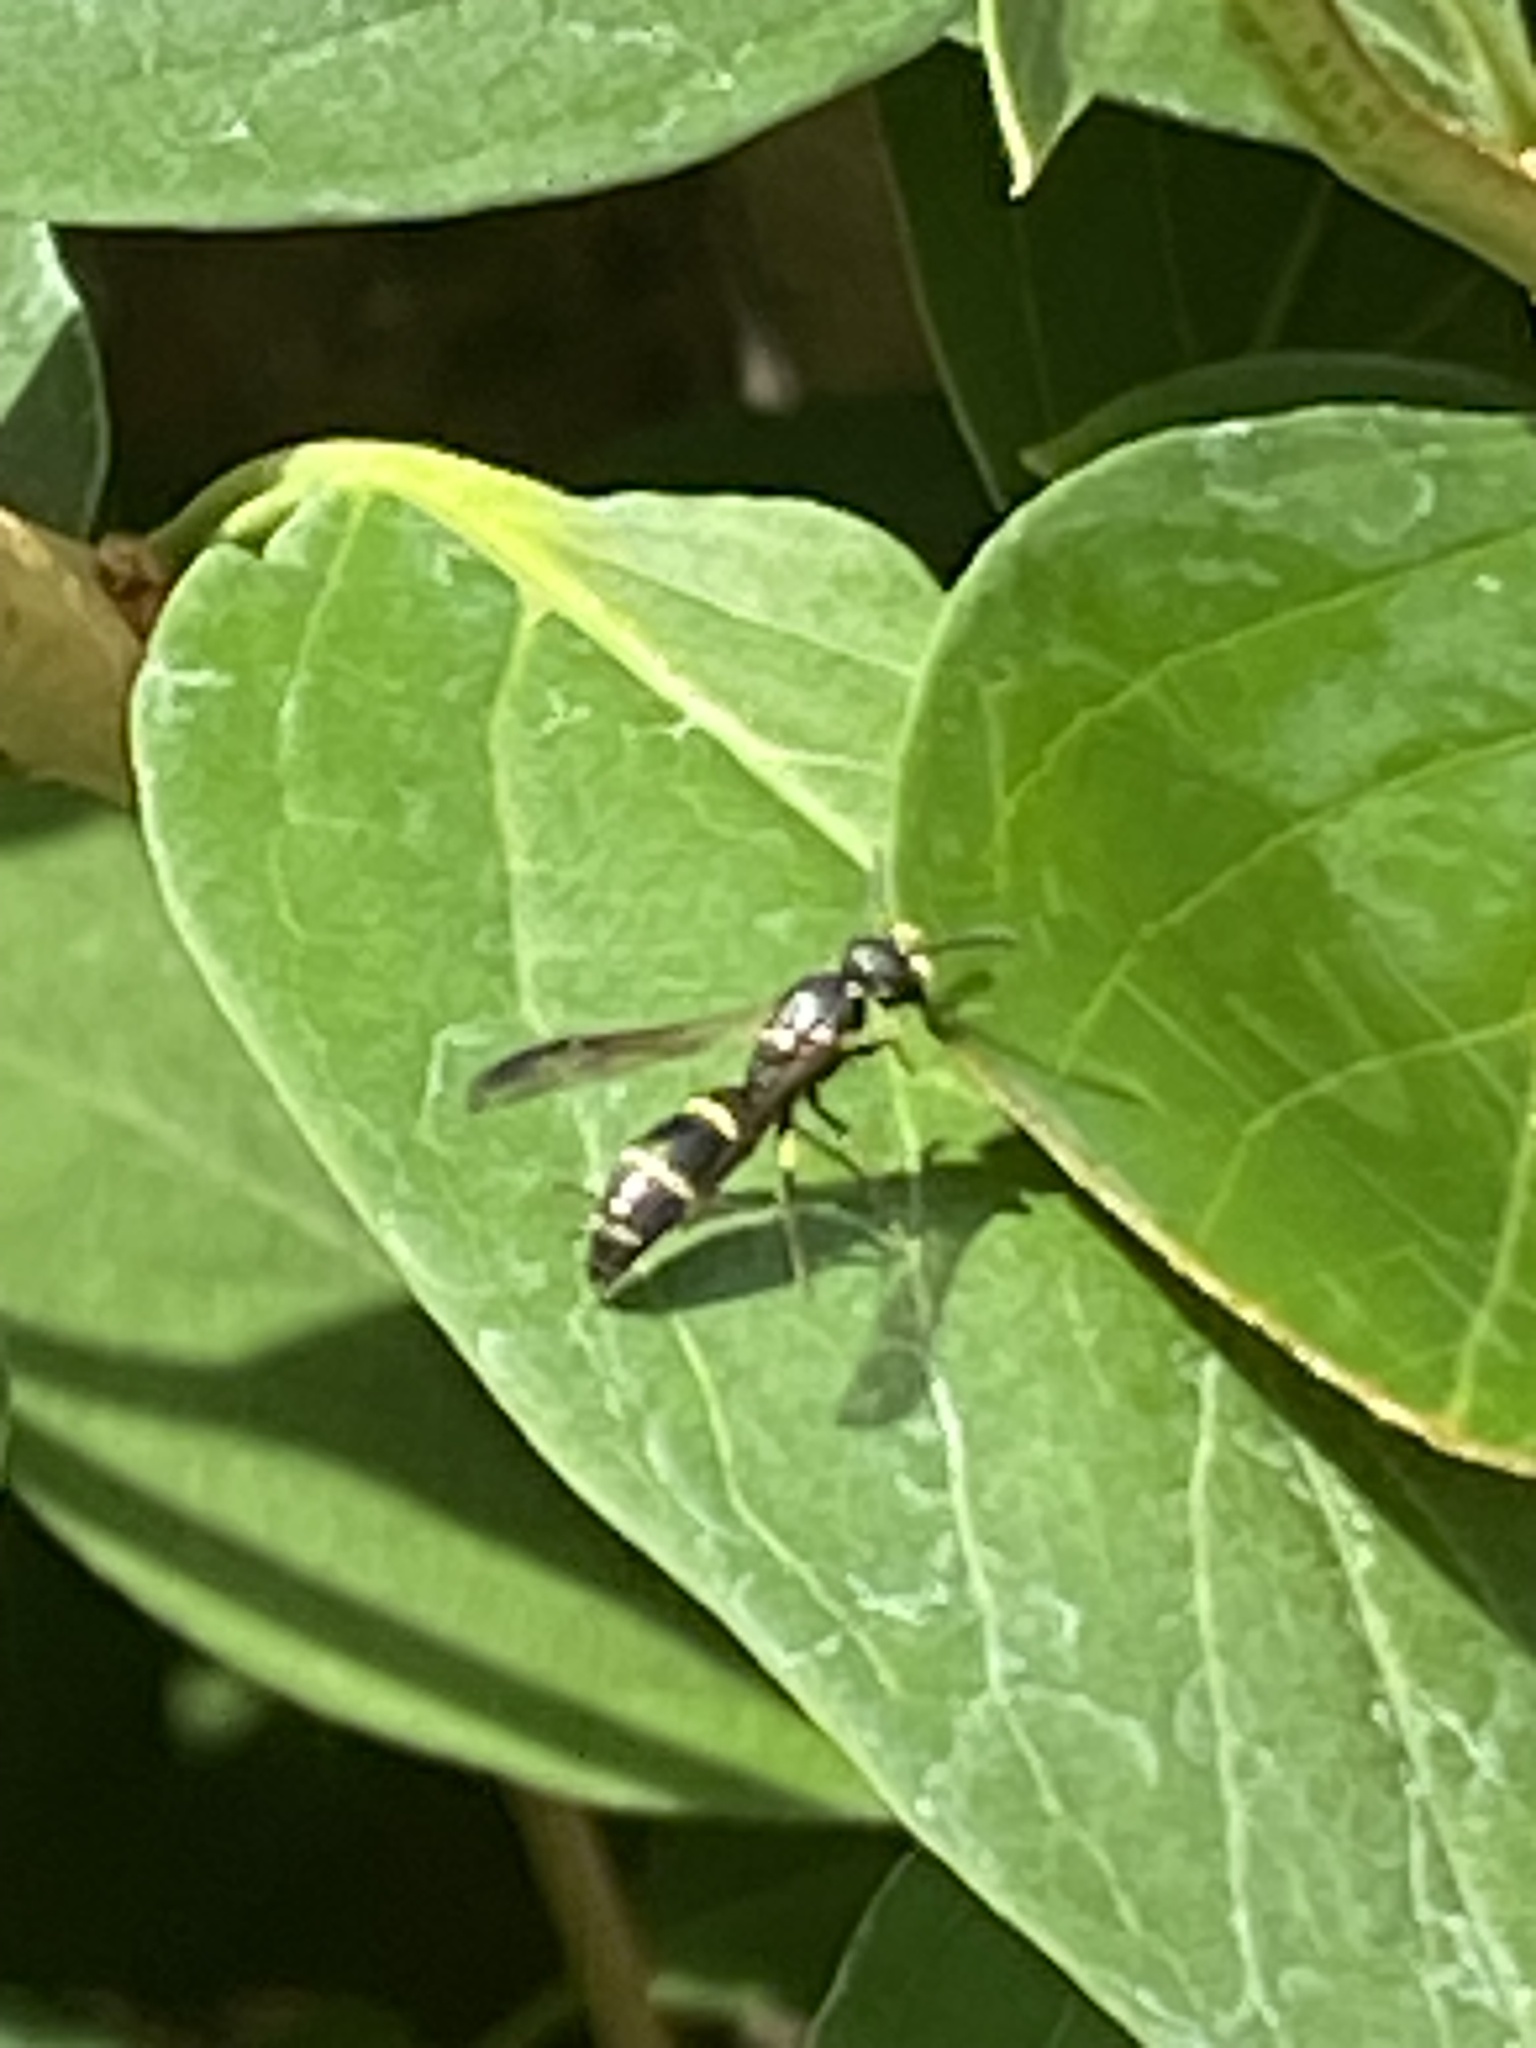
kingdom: Animalia
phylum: Arthropoda
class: Insecta
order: Hymenoptera
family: Eumenidae
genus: Symmorphus
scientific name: Symmorphus
